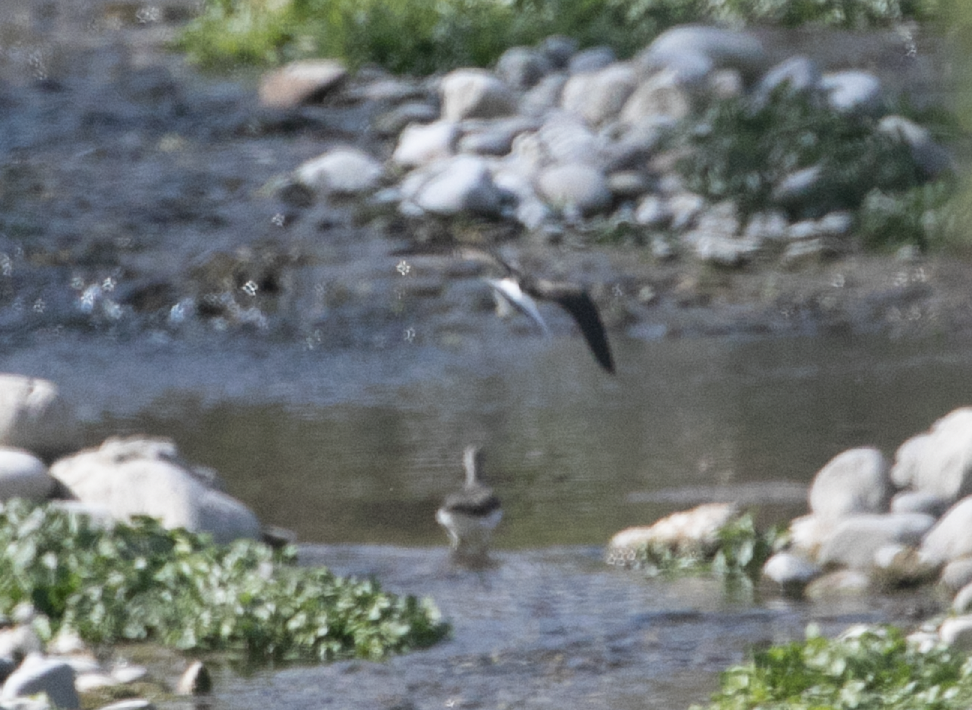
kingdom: Animalia
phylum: Chordata
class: Aves
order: Charadriiformes
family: Scolopacidae
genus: Tringa
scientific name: Tringa ochropus
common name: Green sandpiper
